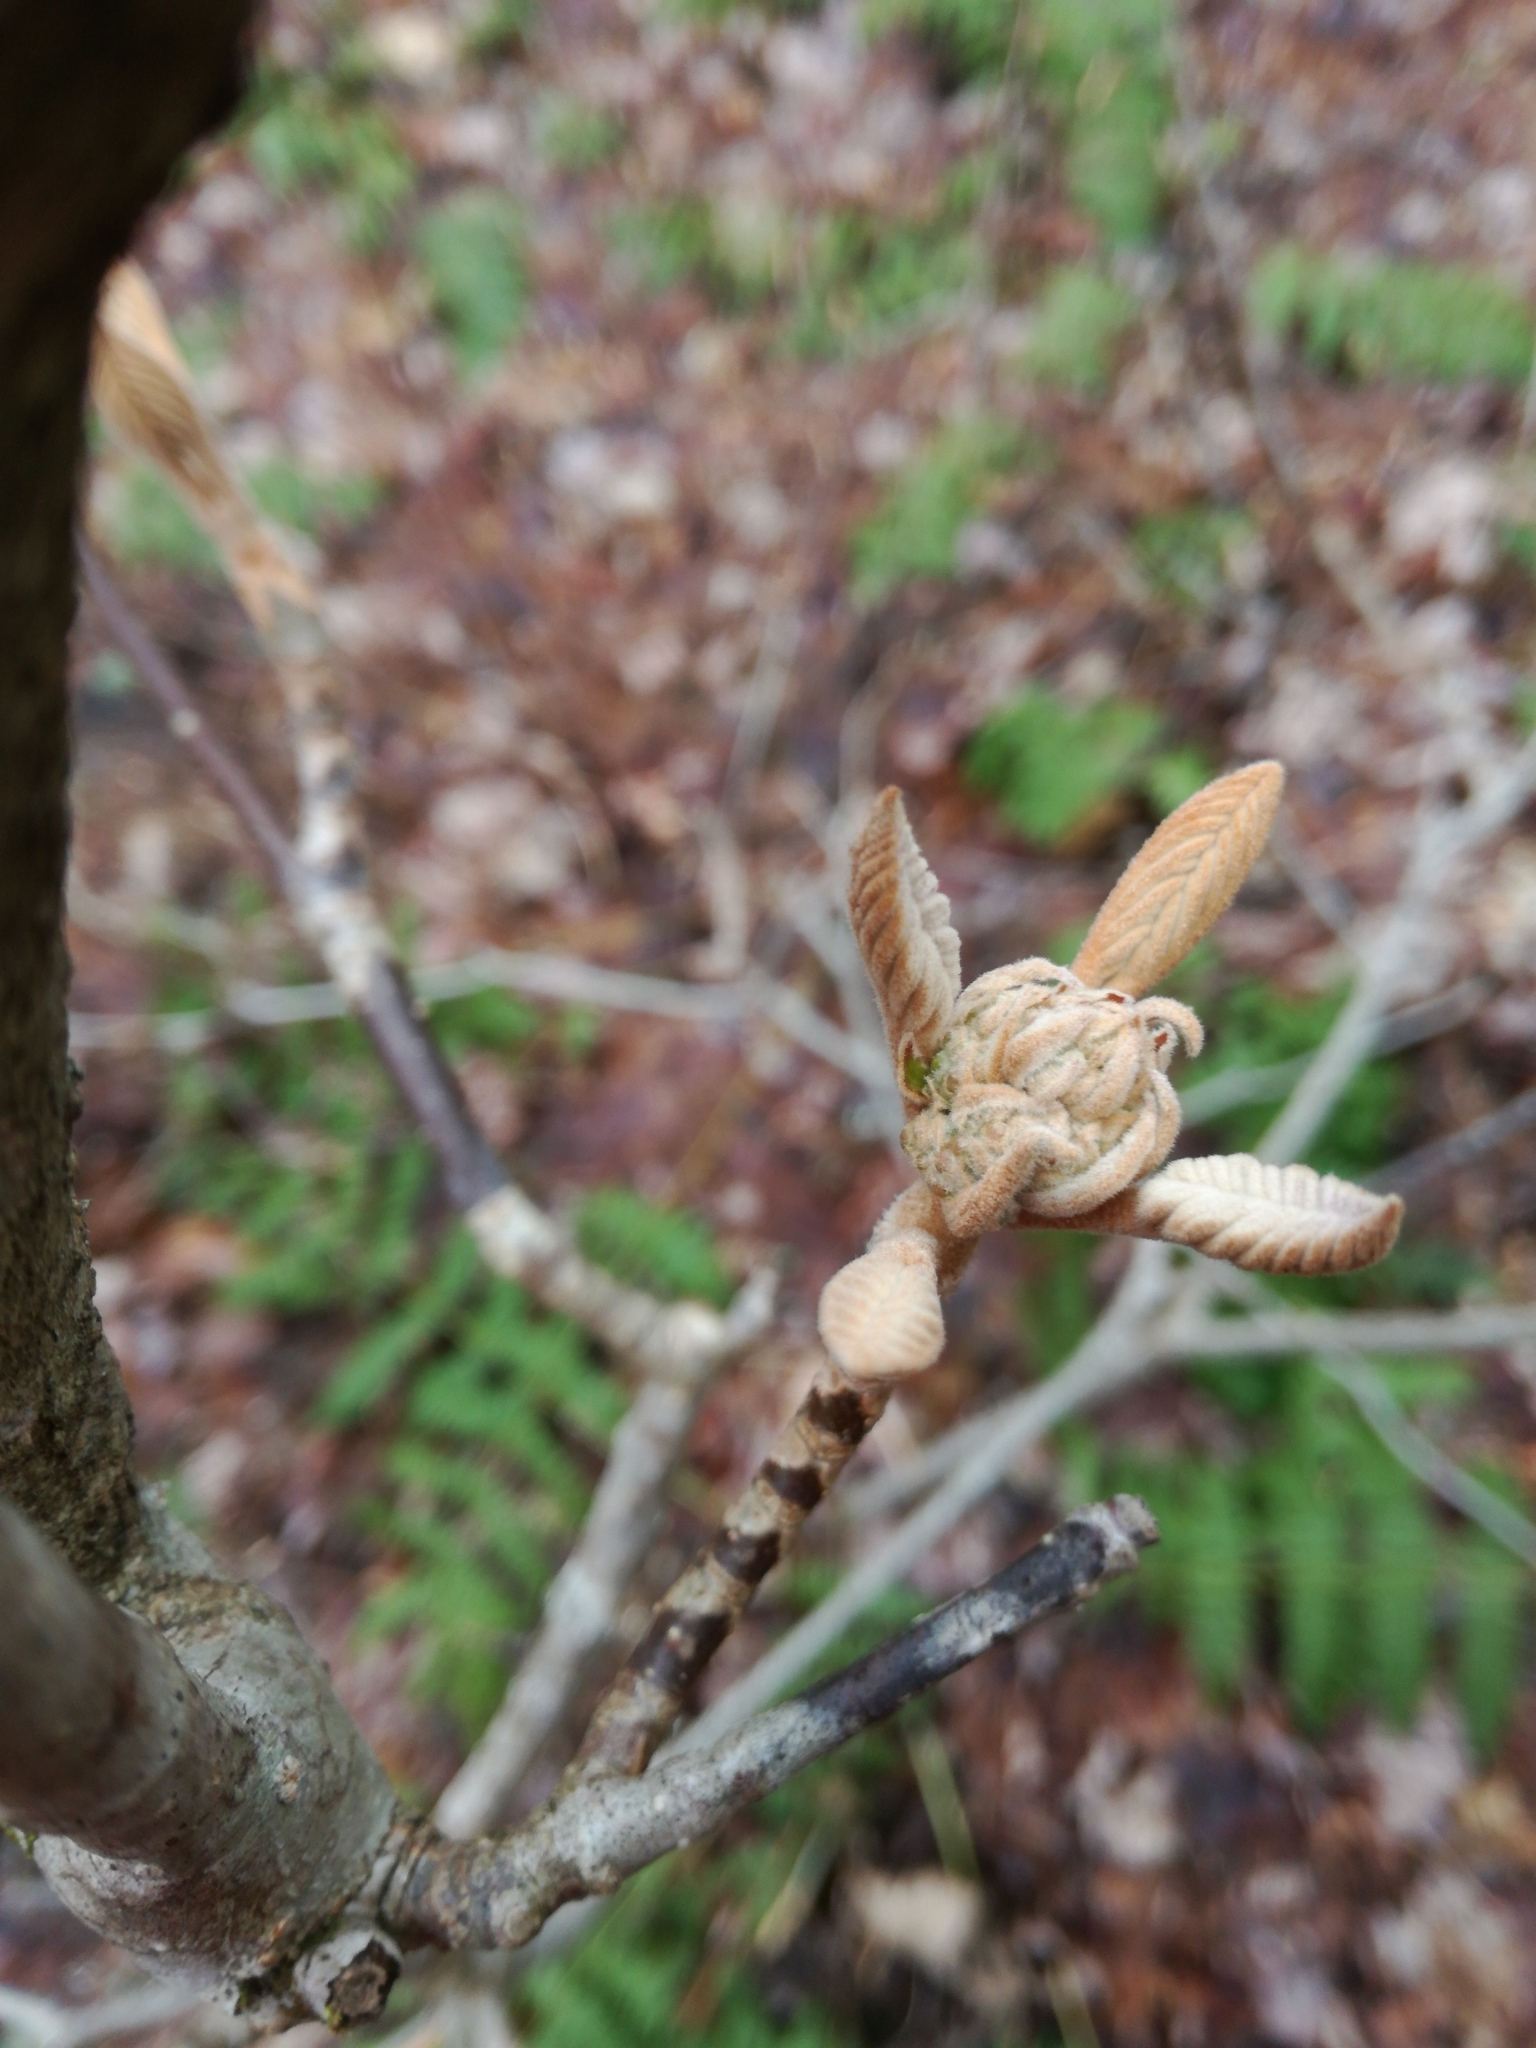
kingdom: Plantae
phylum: Tracheophyta
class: Magnoliopsida
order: Dipsacales
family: Viburnaceae
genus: Viburnum
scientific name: Viburnum lantanoides
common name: Hobblebush
